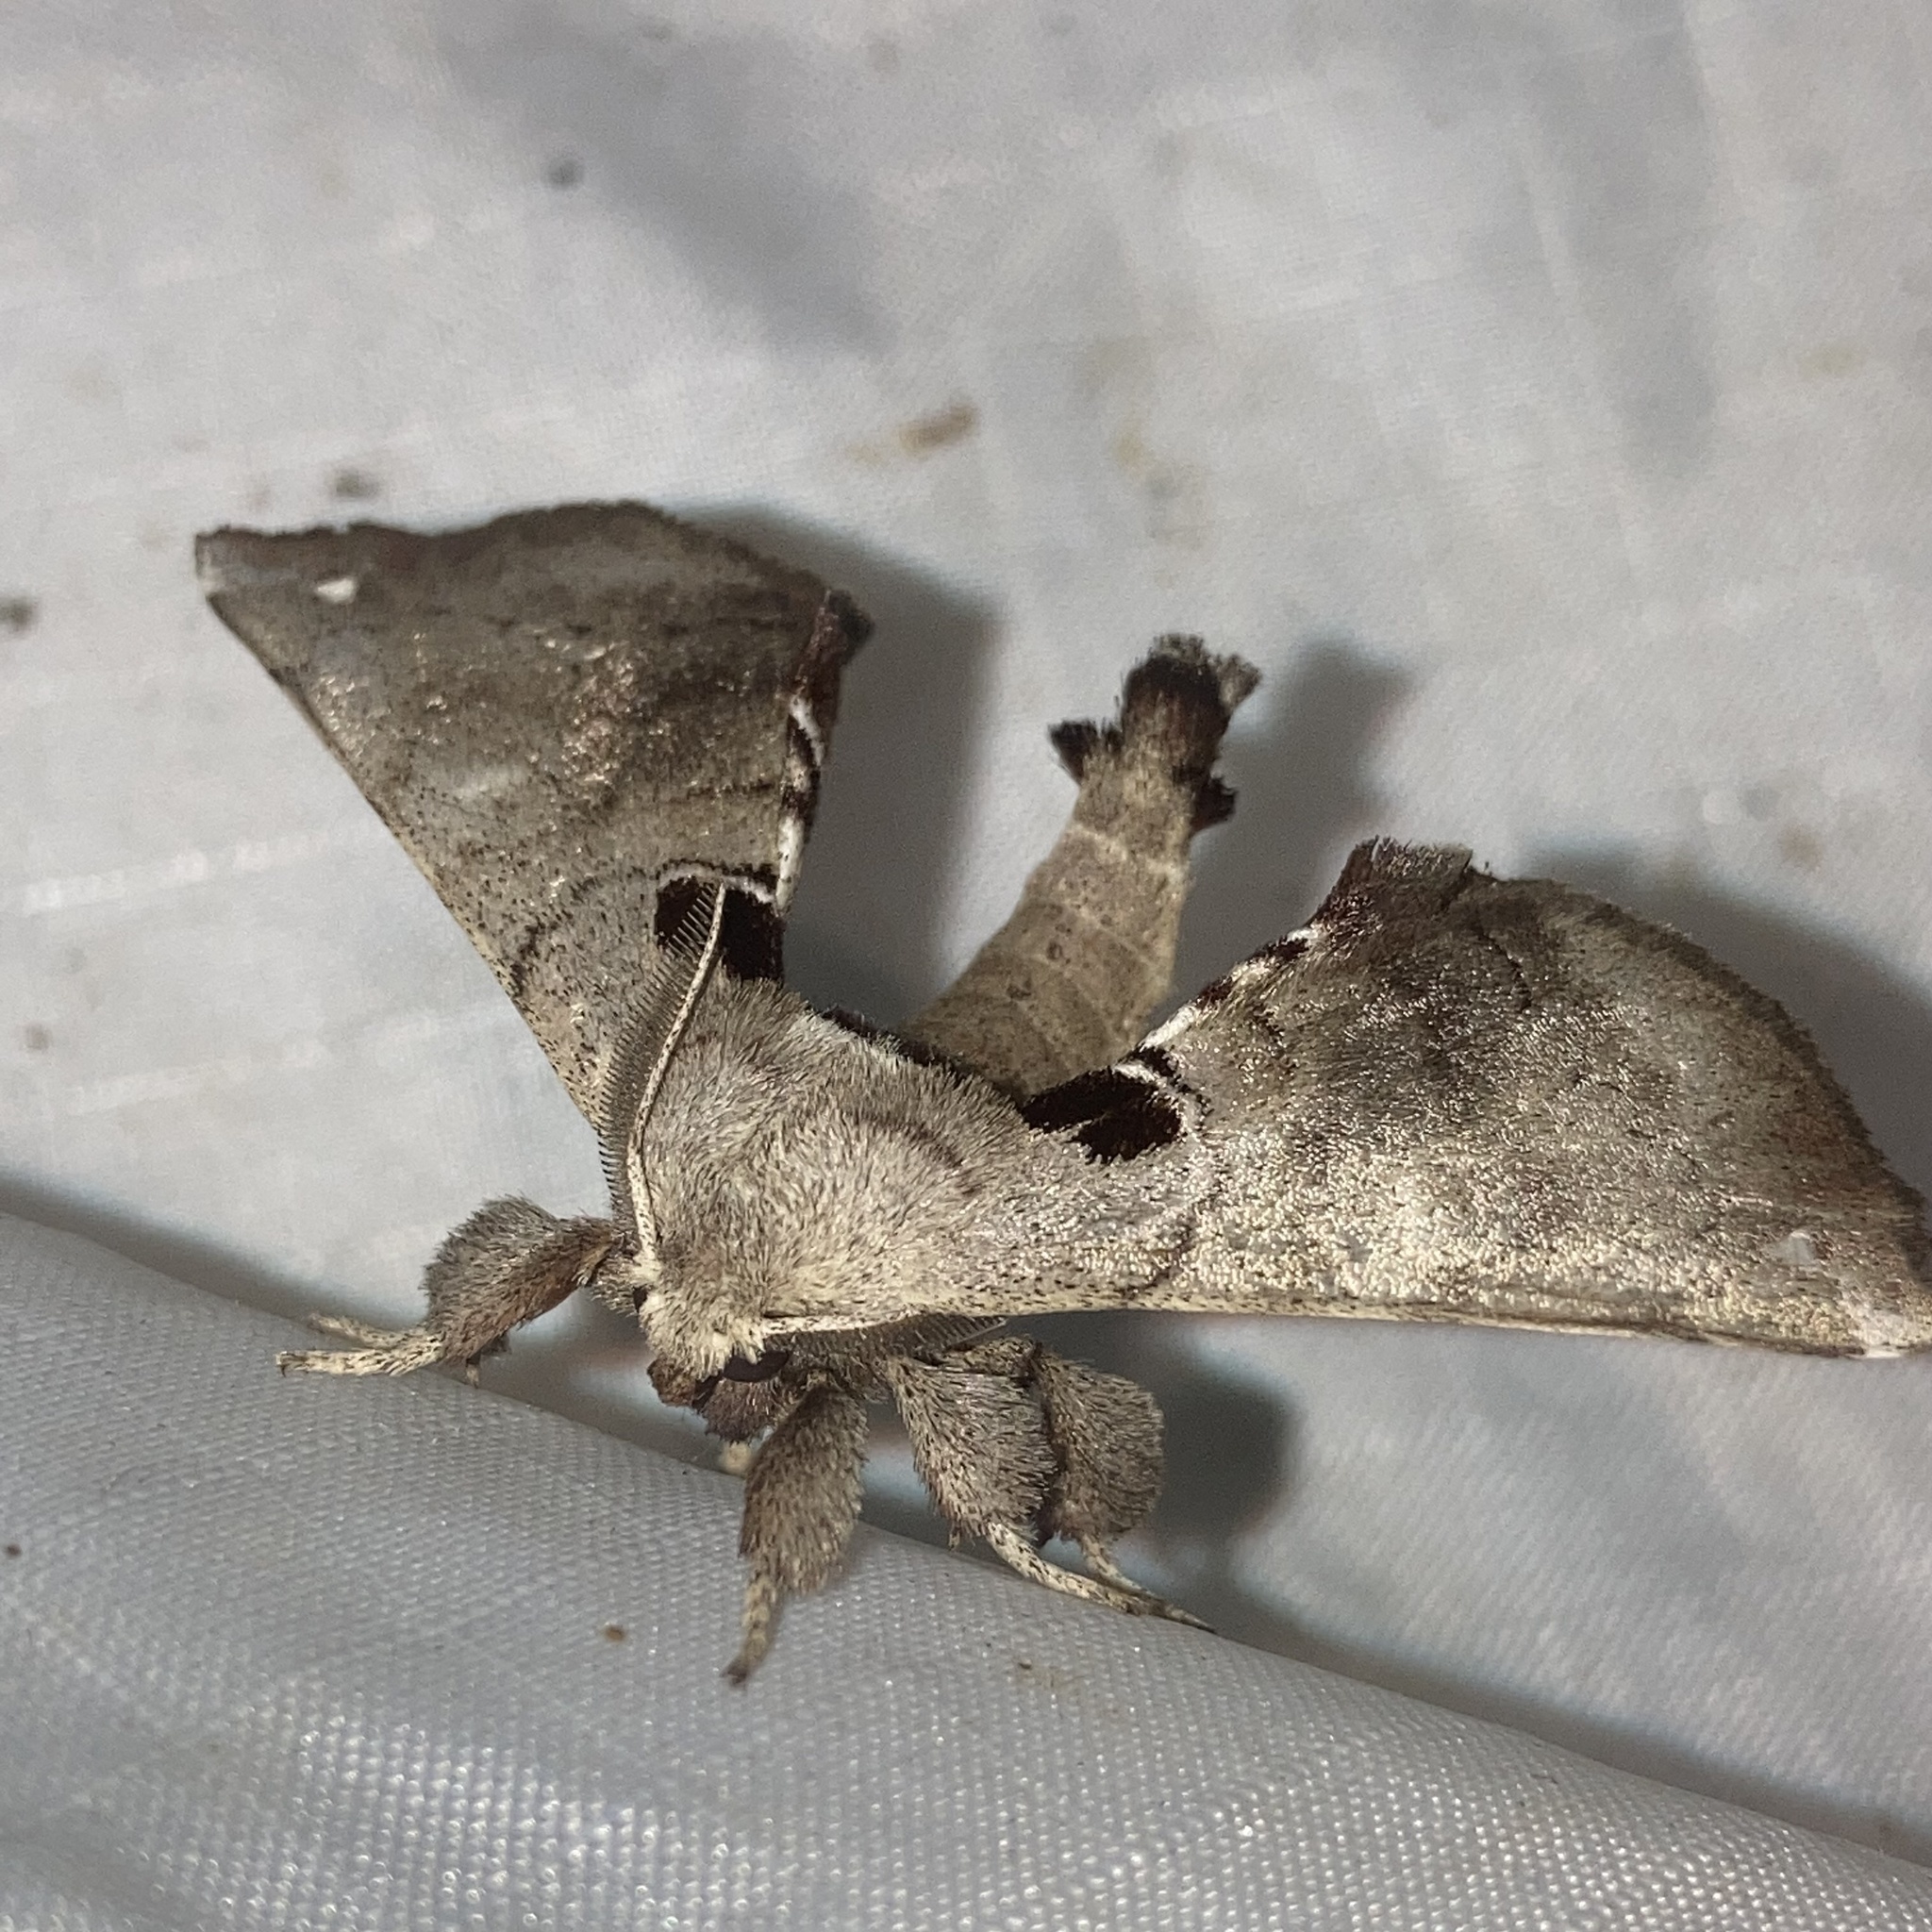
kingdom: Animalia
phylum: Arthropoda
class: Insecta
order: Lepidoptera
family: Apatelodidae
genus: Hygrochroa
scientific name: Hygrochroa Apatelodes torrefacta
